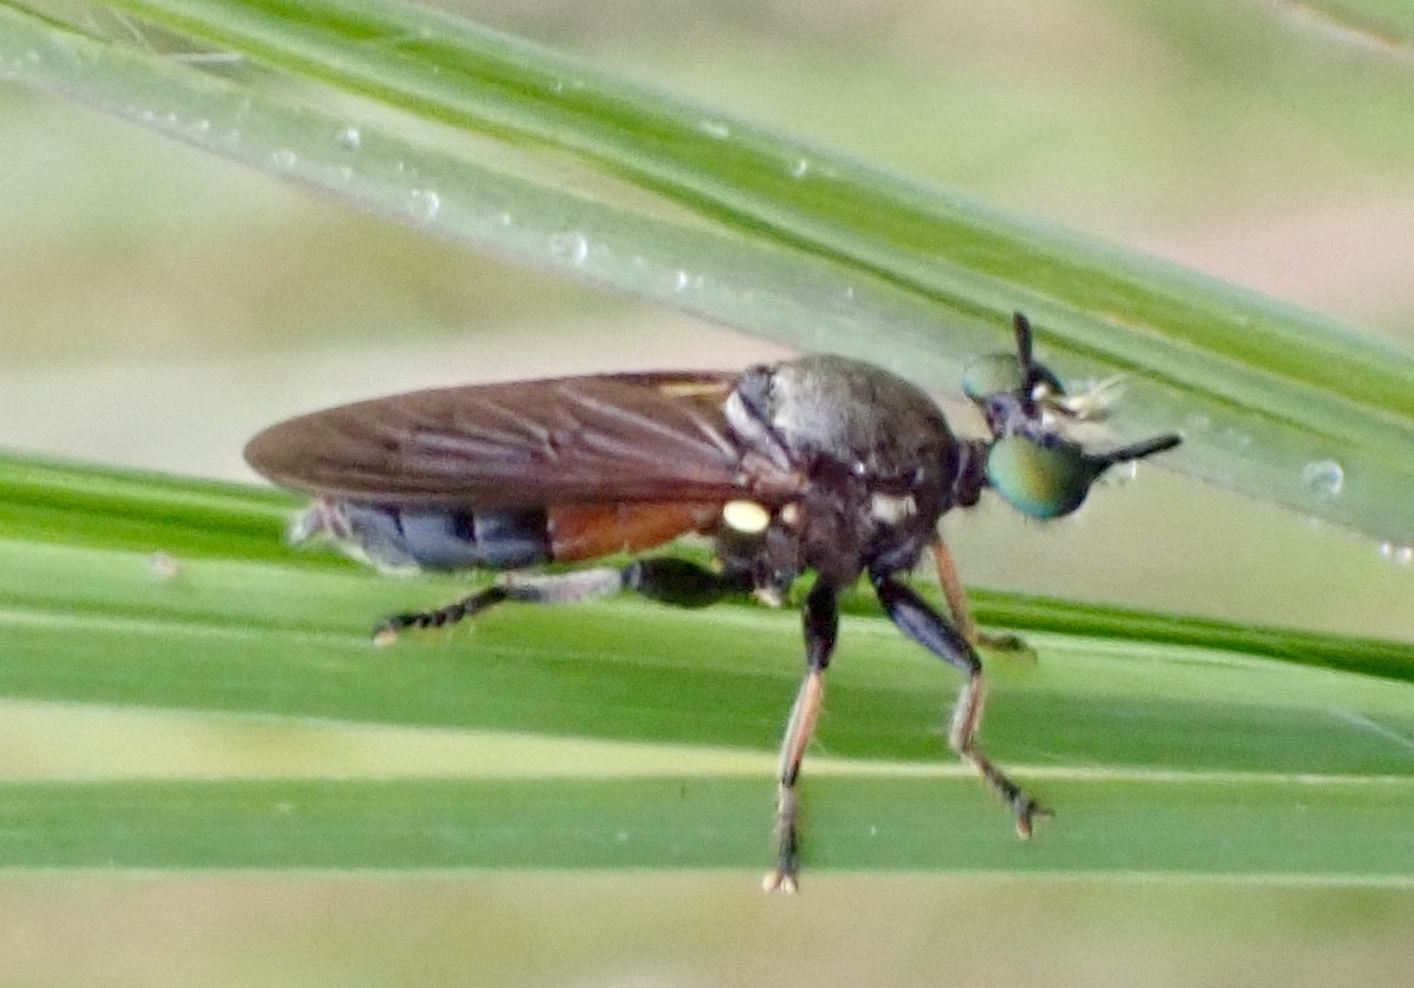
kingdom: Animalia
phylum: Arthropoda
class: Insecta
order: Diptera
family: Asilidae
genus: Lampria
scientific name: Lampria rubriventris
